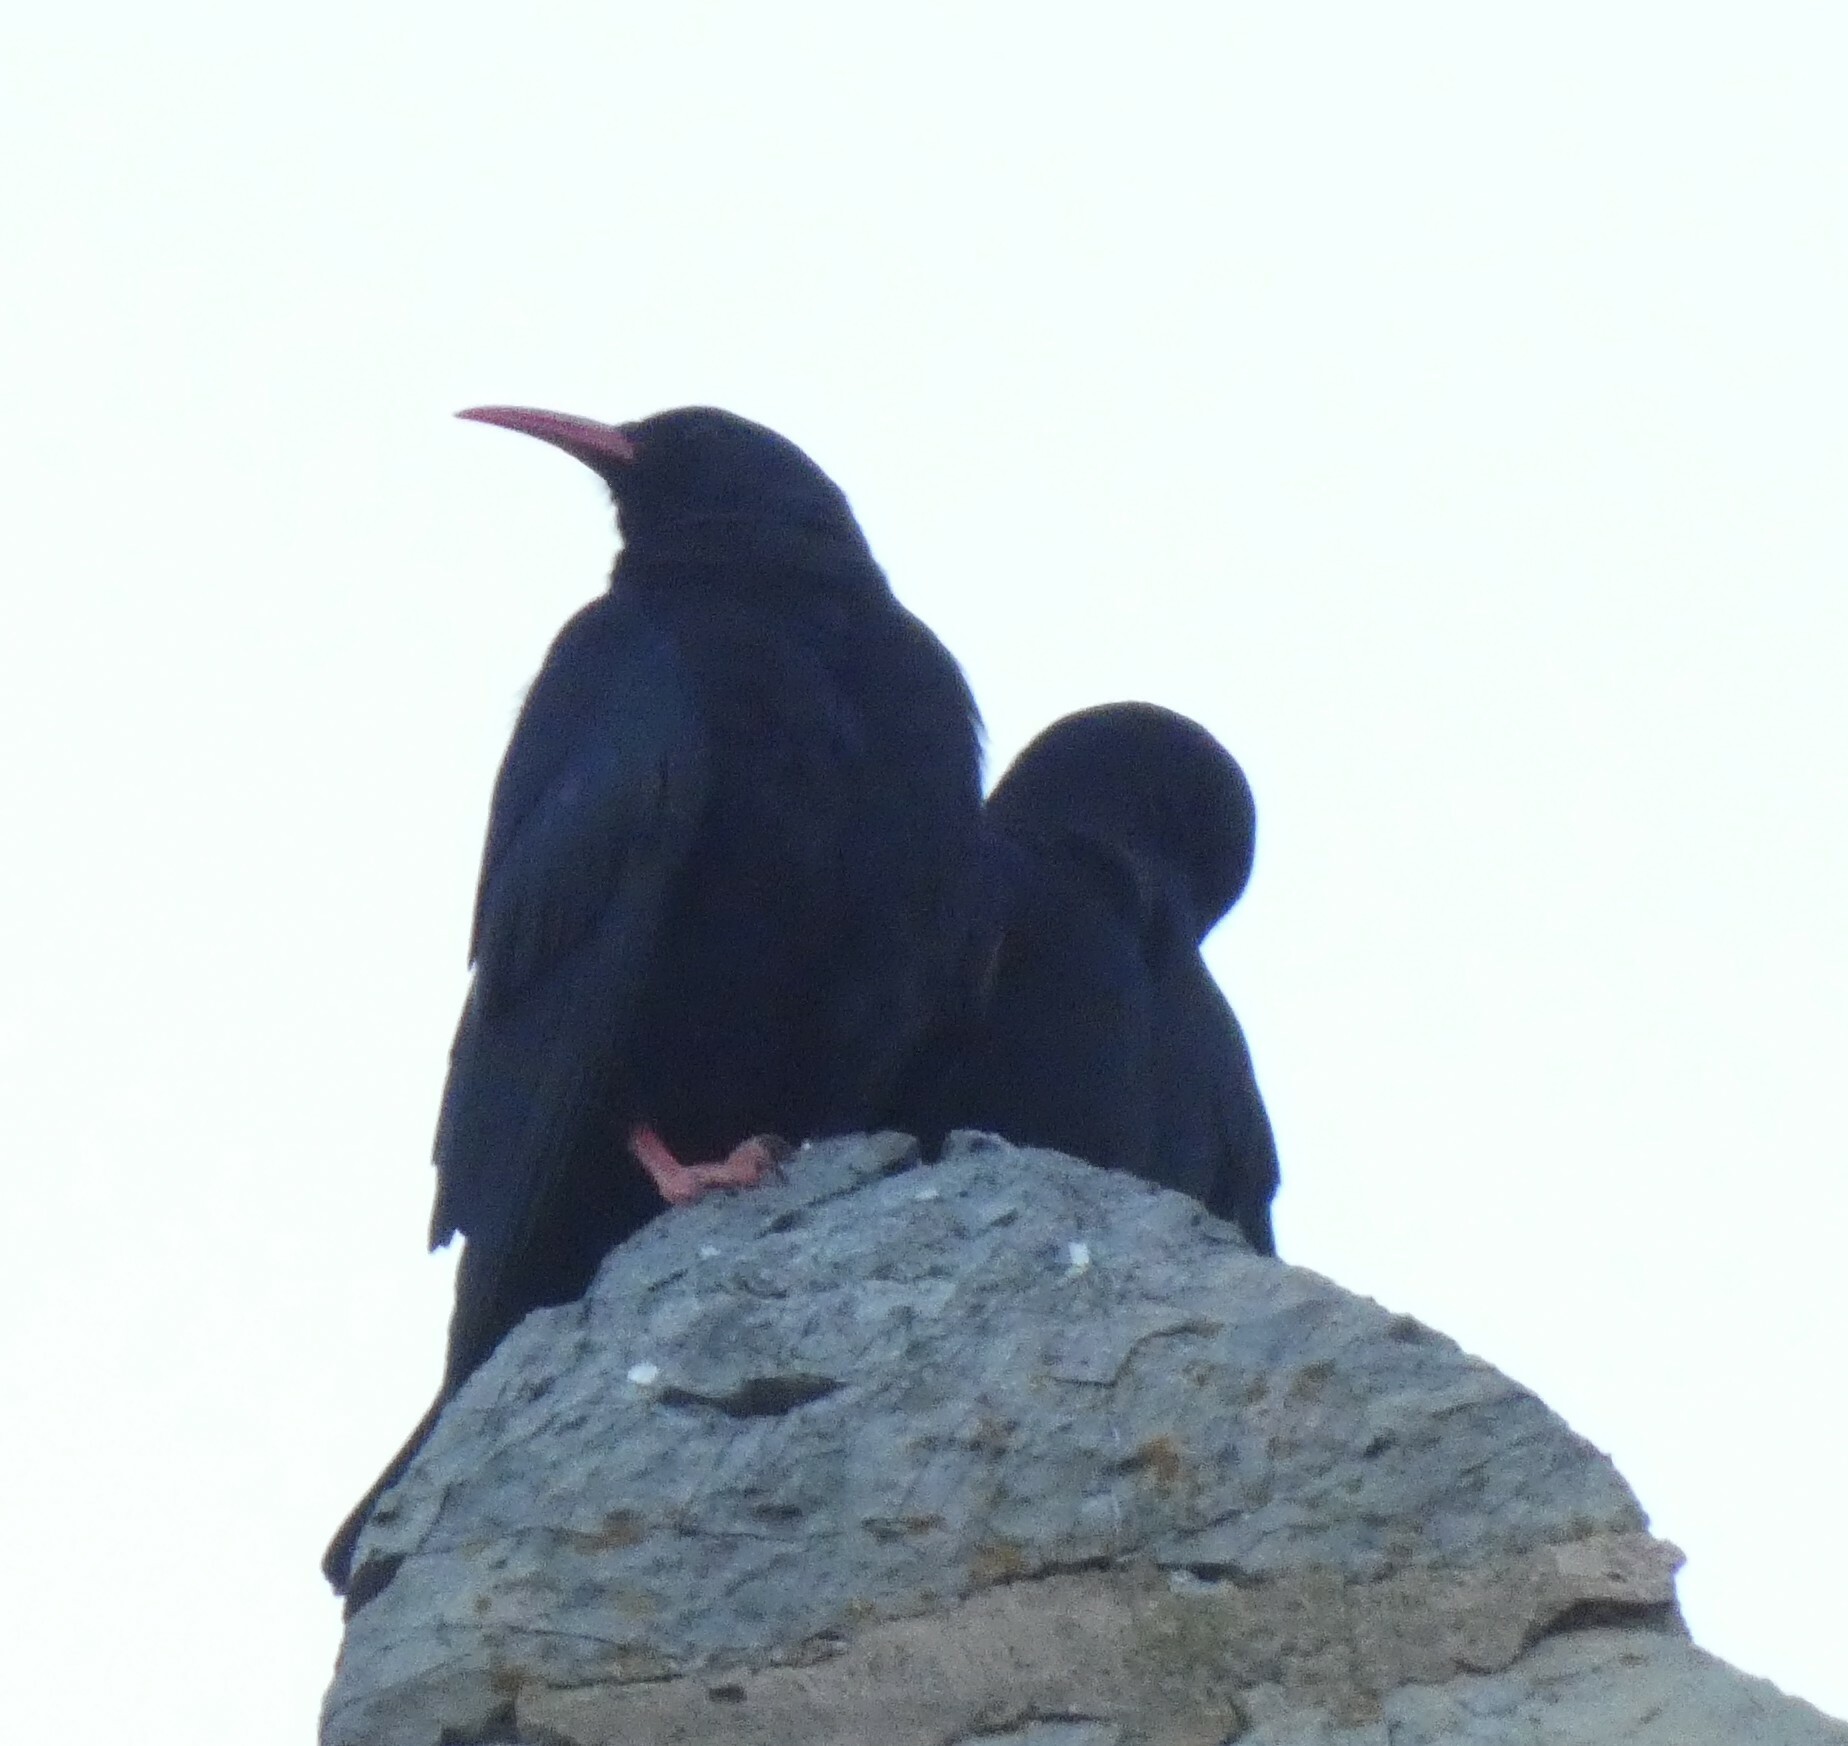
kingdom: Animalia
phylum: Chordata
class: Aves
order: Passeriformes
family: Corvidae
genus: Pyrrhocorax
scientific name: Pyrrhocorax pyrrhocorax
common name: Red-billed chough
